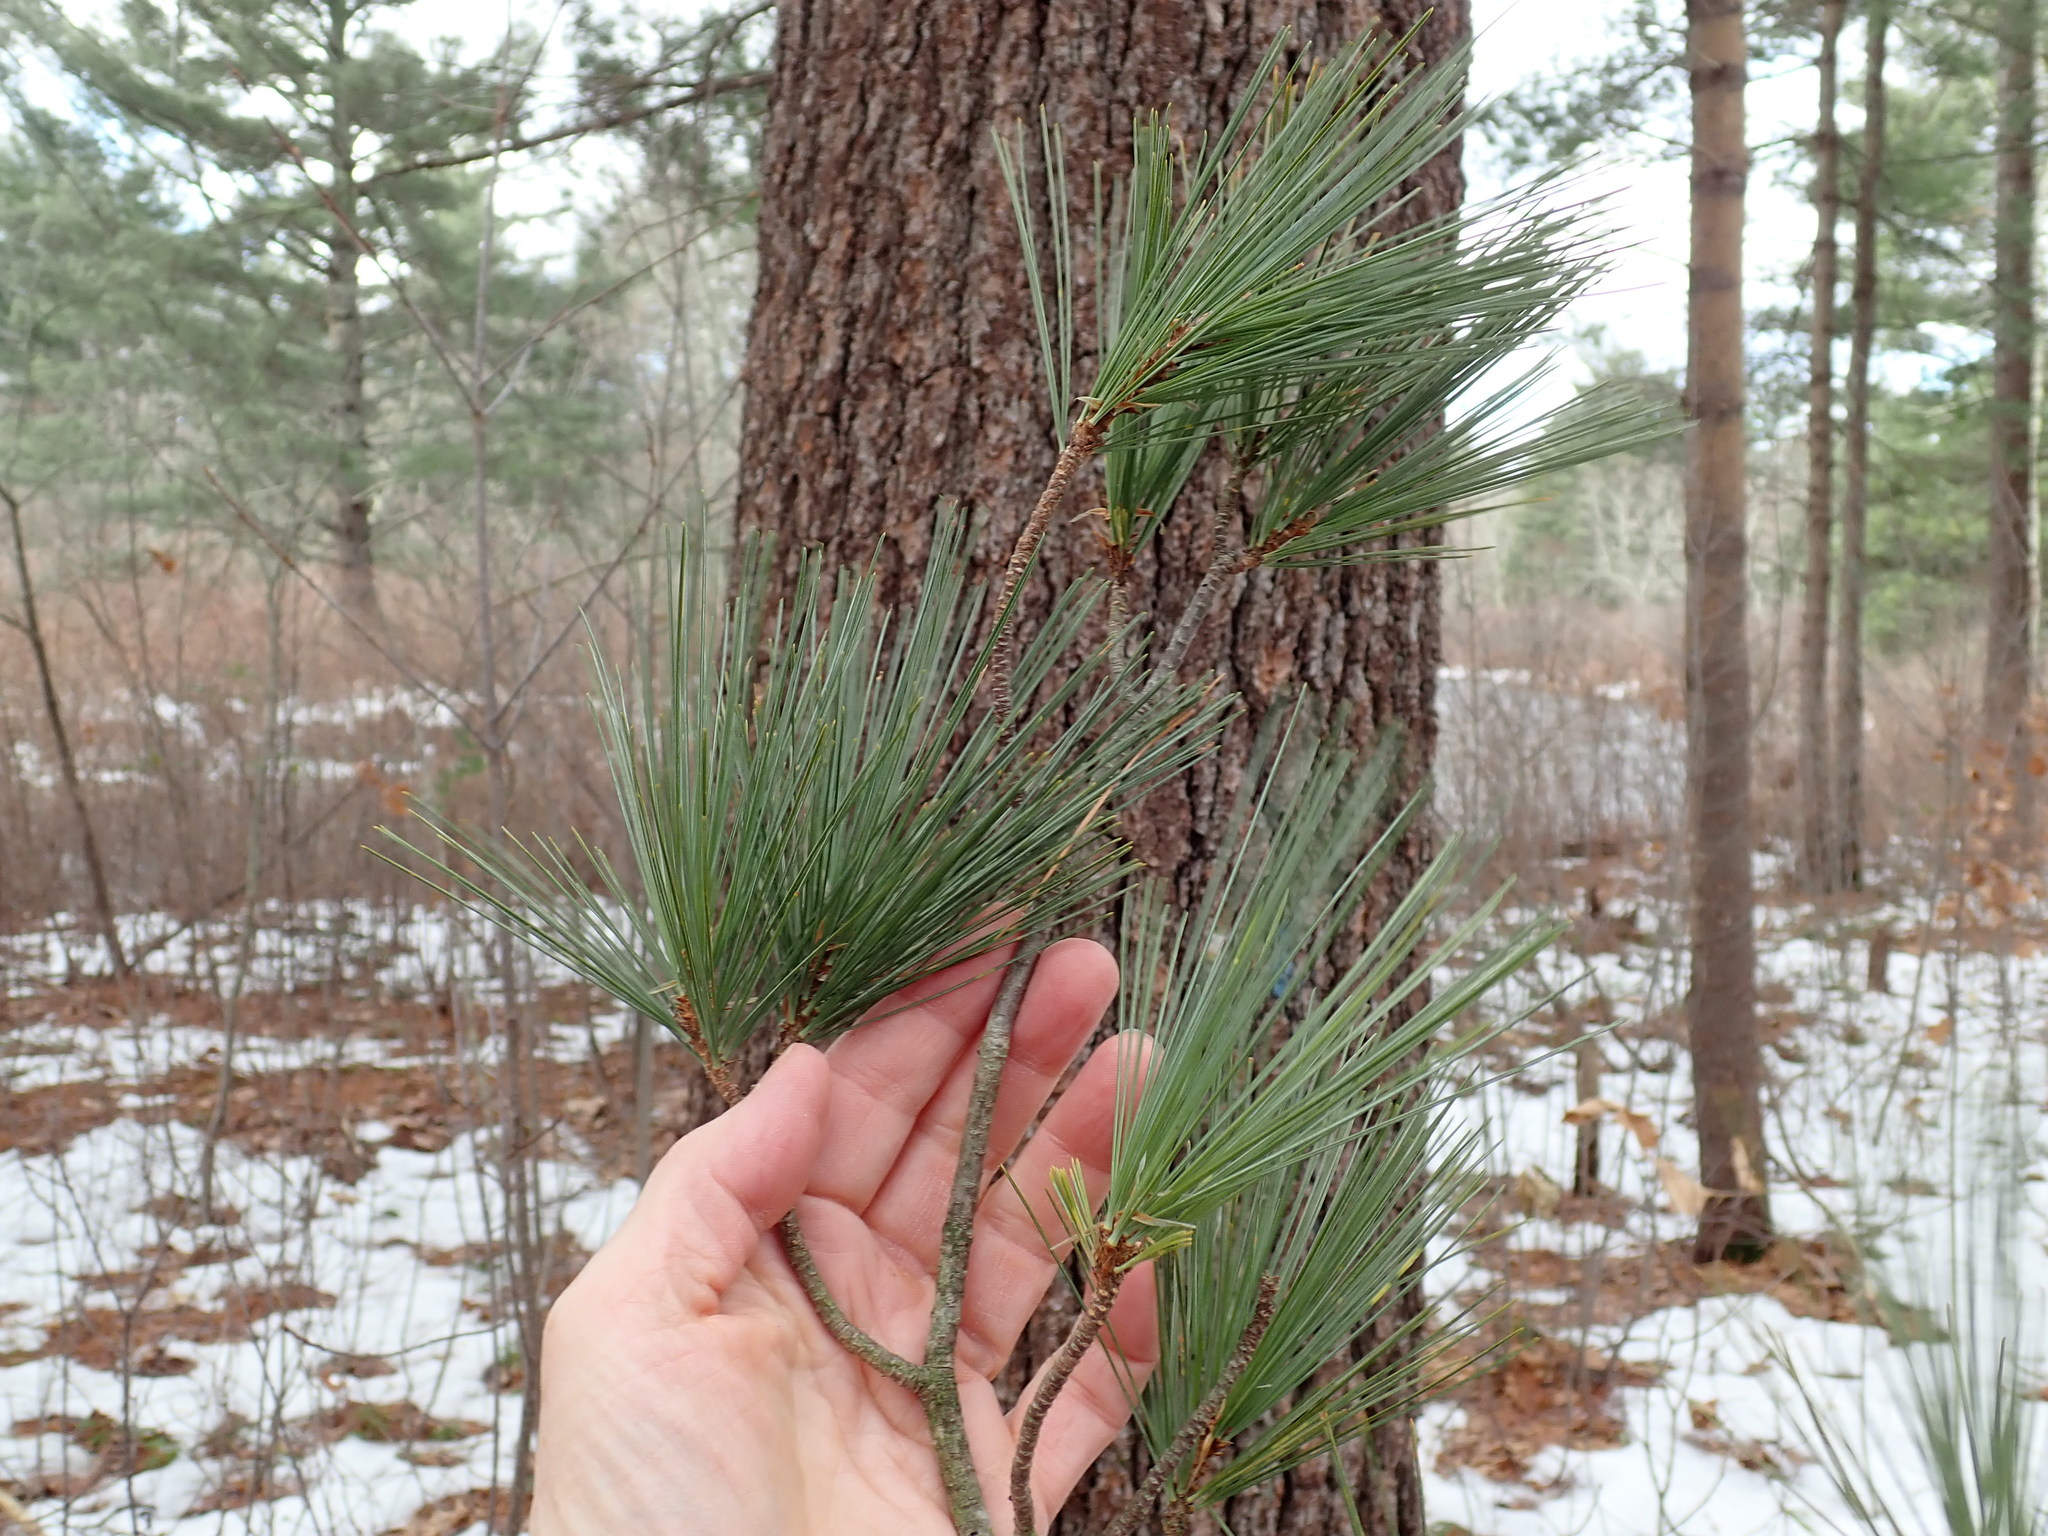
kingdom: Plantae
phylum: Tracheophyta
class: Pinopsida
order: Pinales
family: Pinaceae
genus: Pinus
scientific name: Pinus strobus
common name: Weymouth pine
